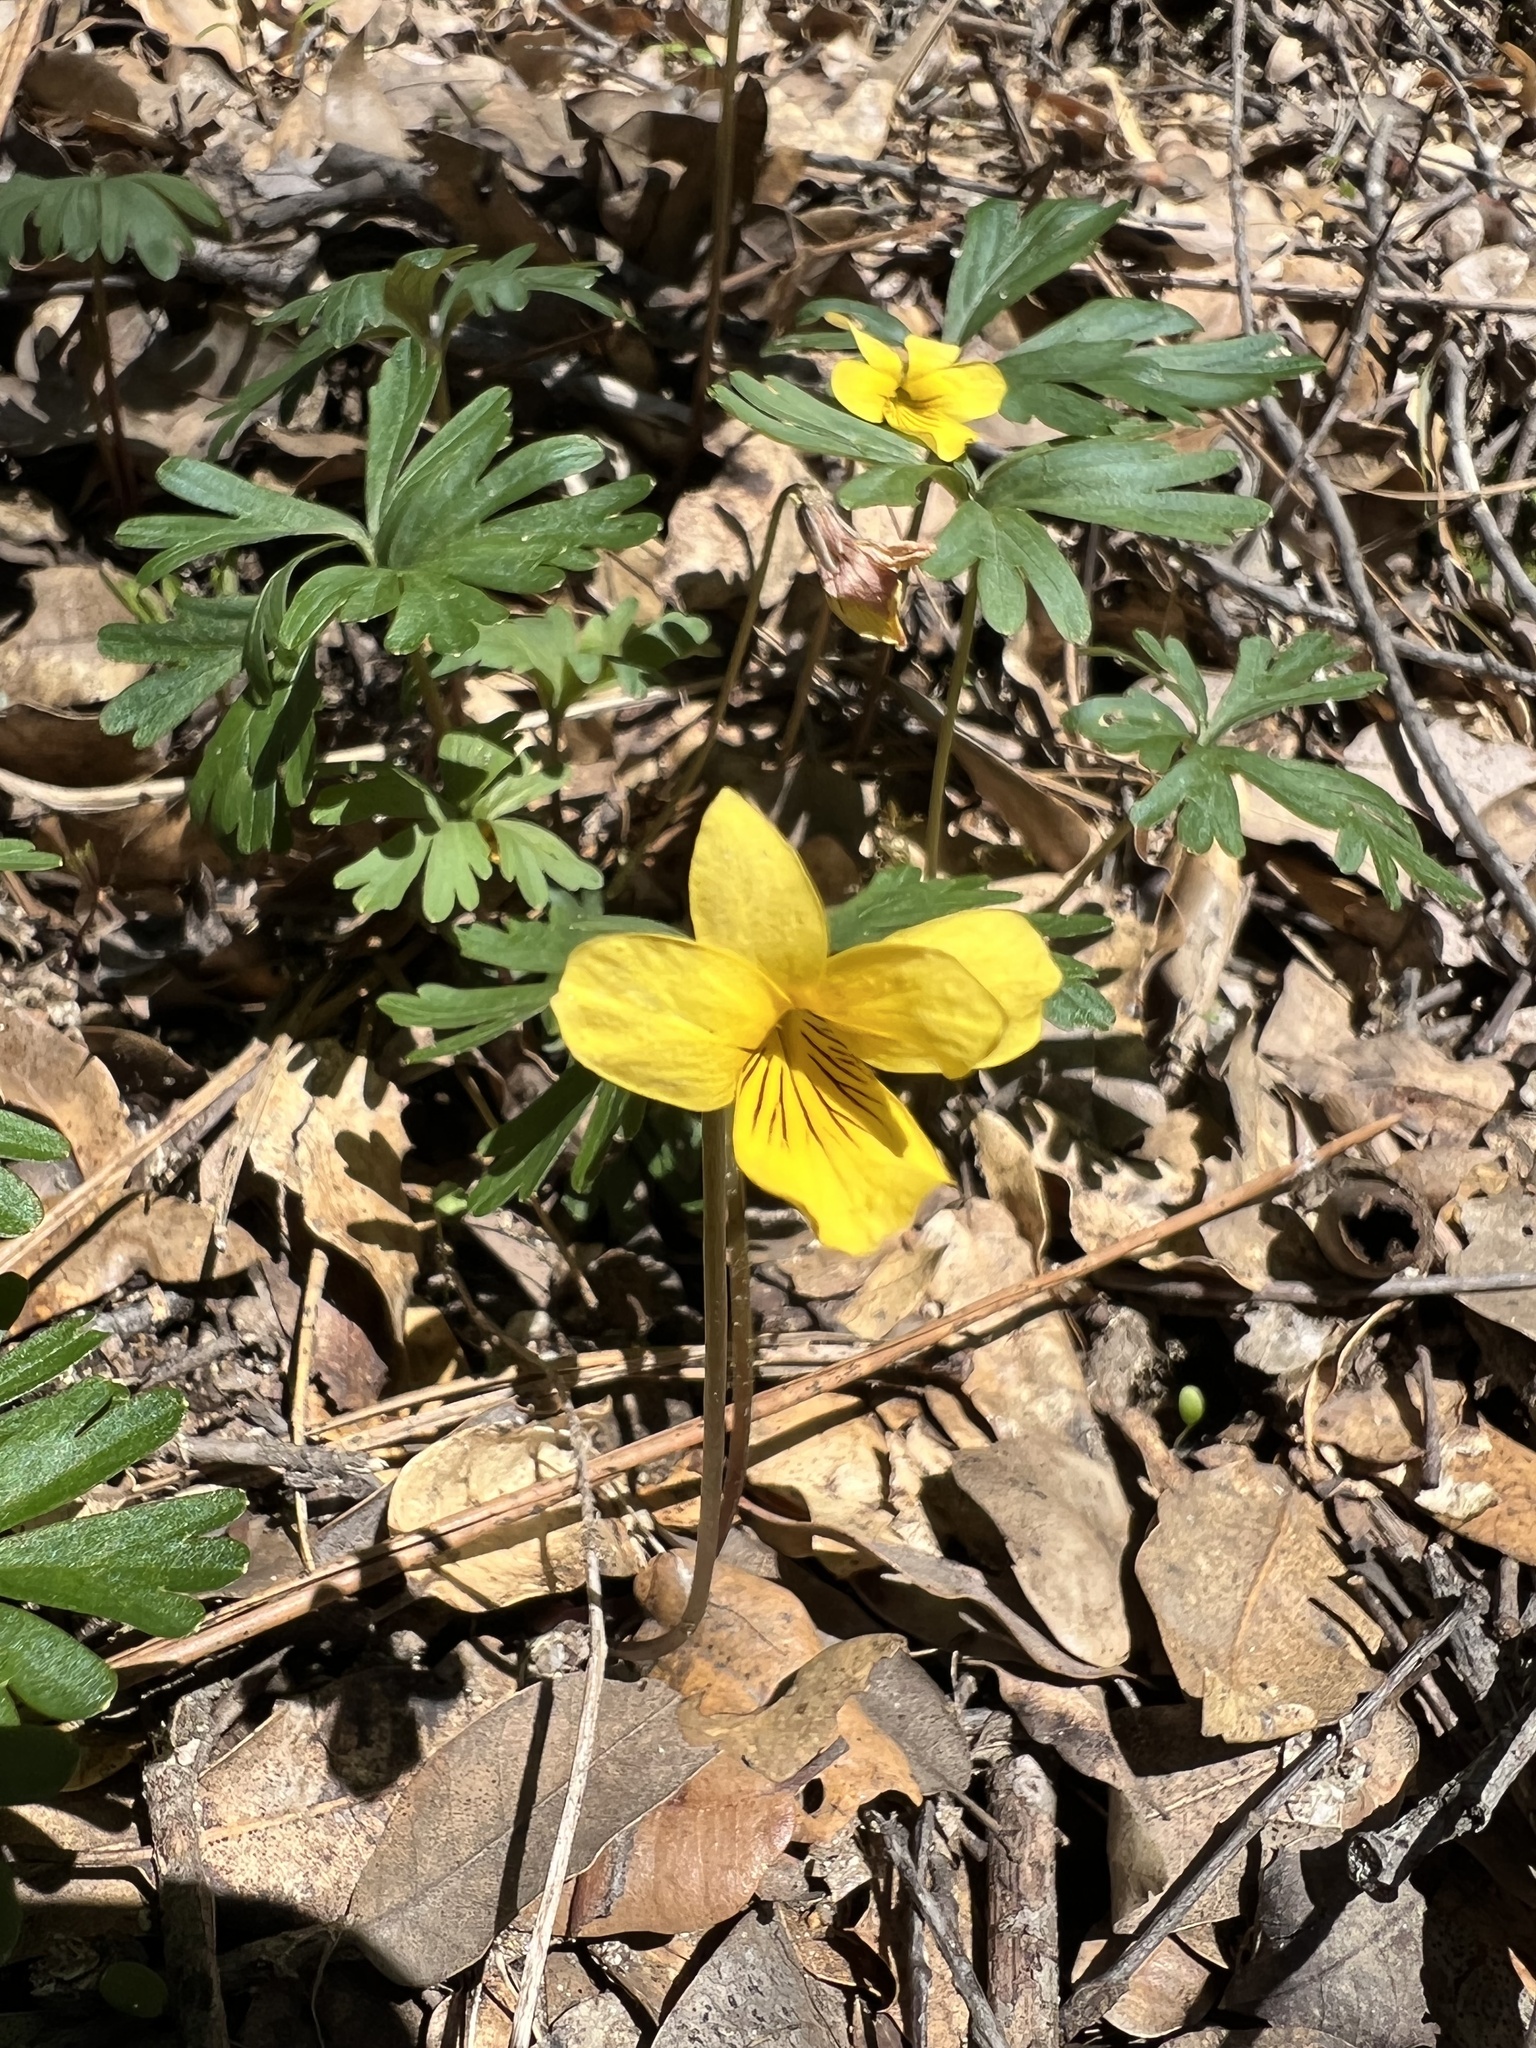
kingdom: Plantae
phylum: Tracheophyta
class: Magnoliopsida
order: Malpighiales
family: Violaceae
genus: Viola
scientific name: Viola sheltonii
